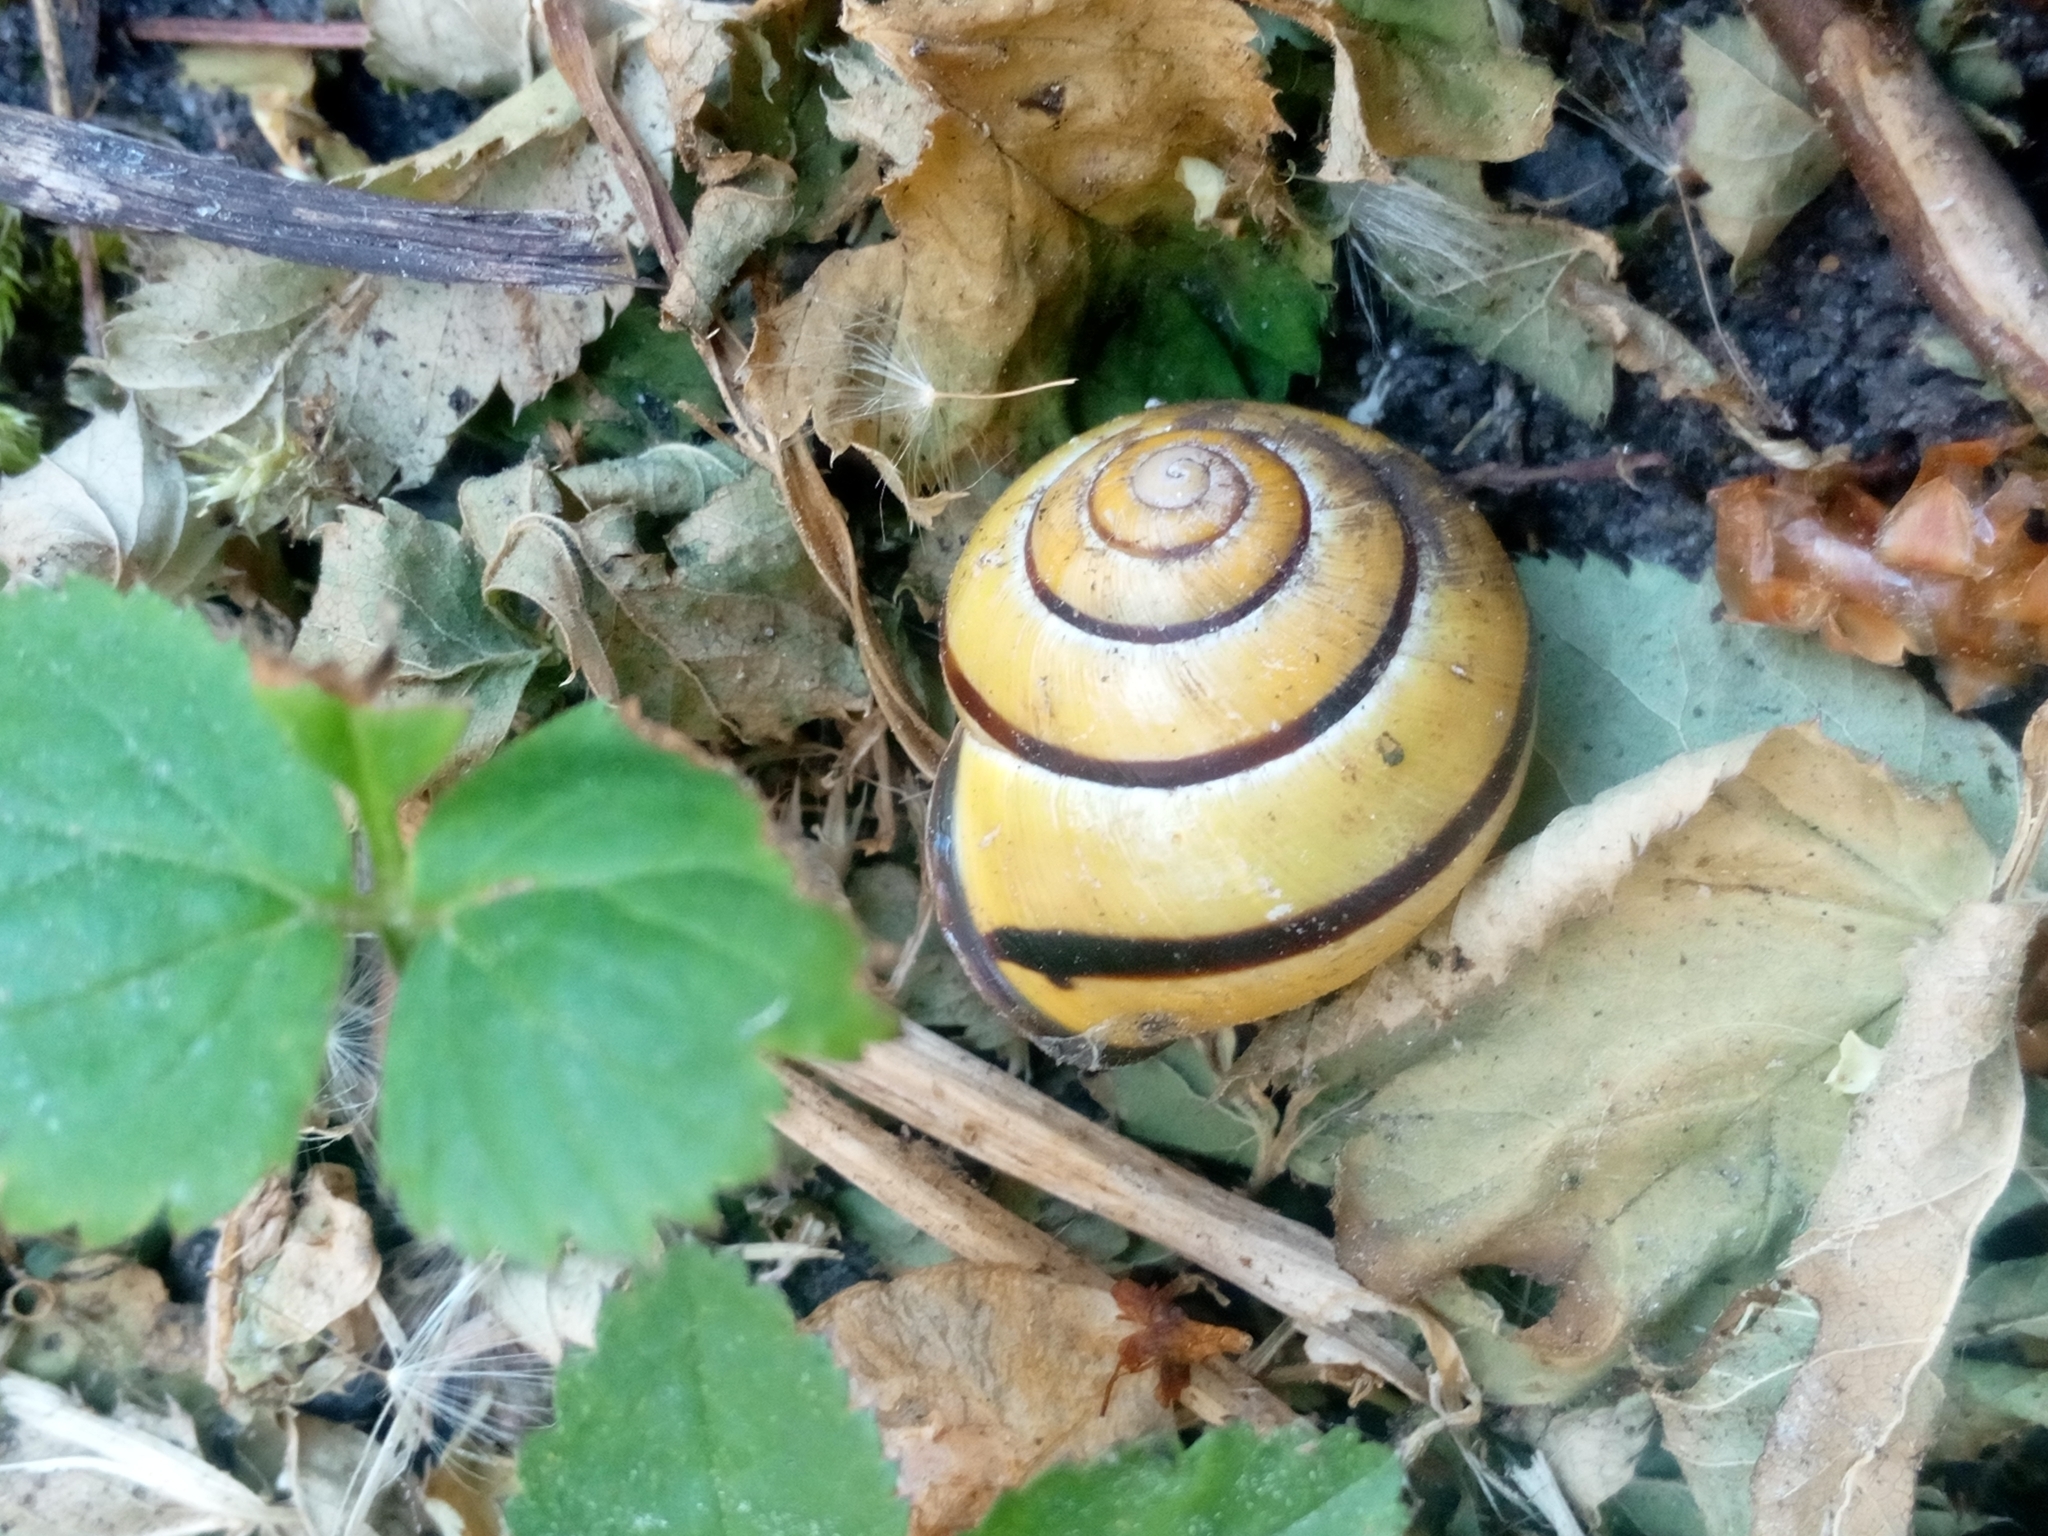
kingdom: Animalia
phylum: Mollusca
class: Gastropoda
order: Stylommatophora
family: Helicidae
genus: Cepaea
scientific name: Cepaea nemoralis
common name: Grovesnail
